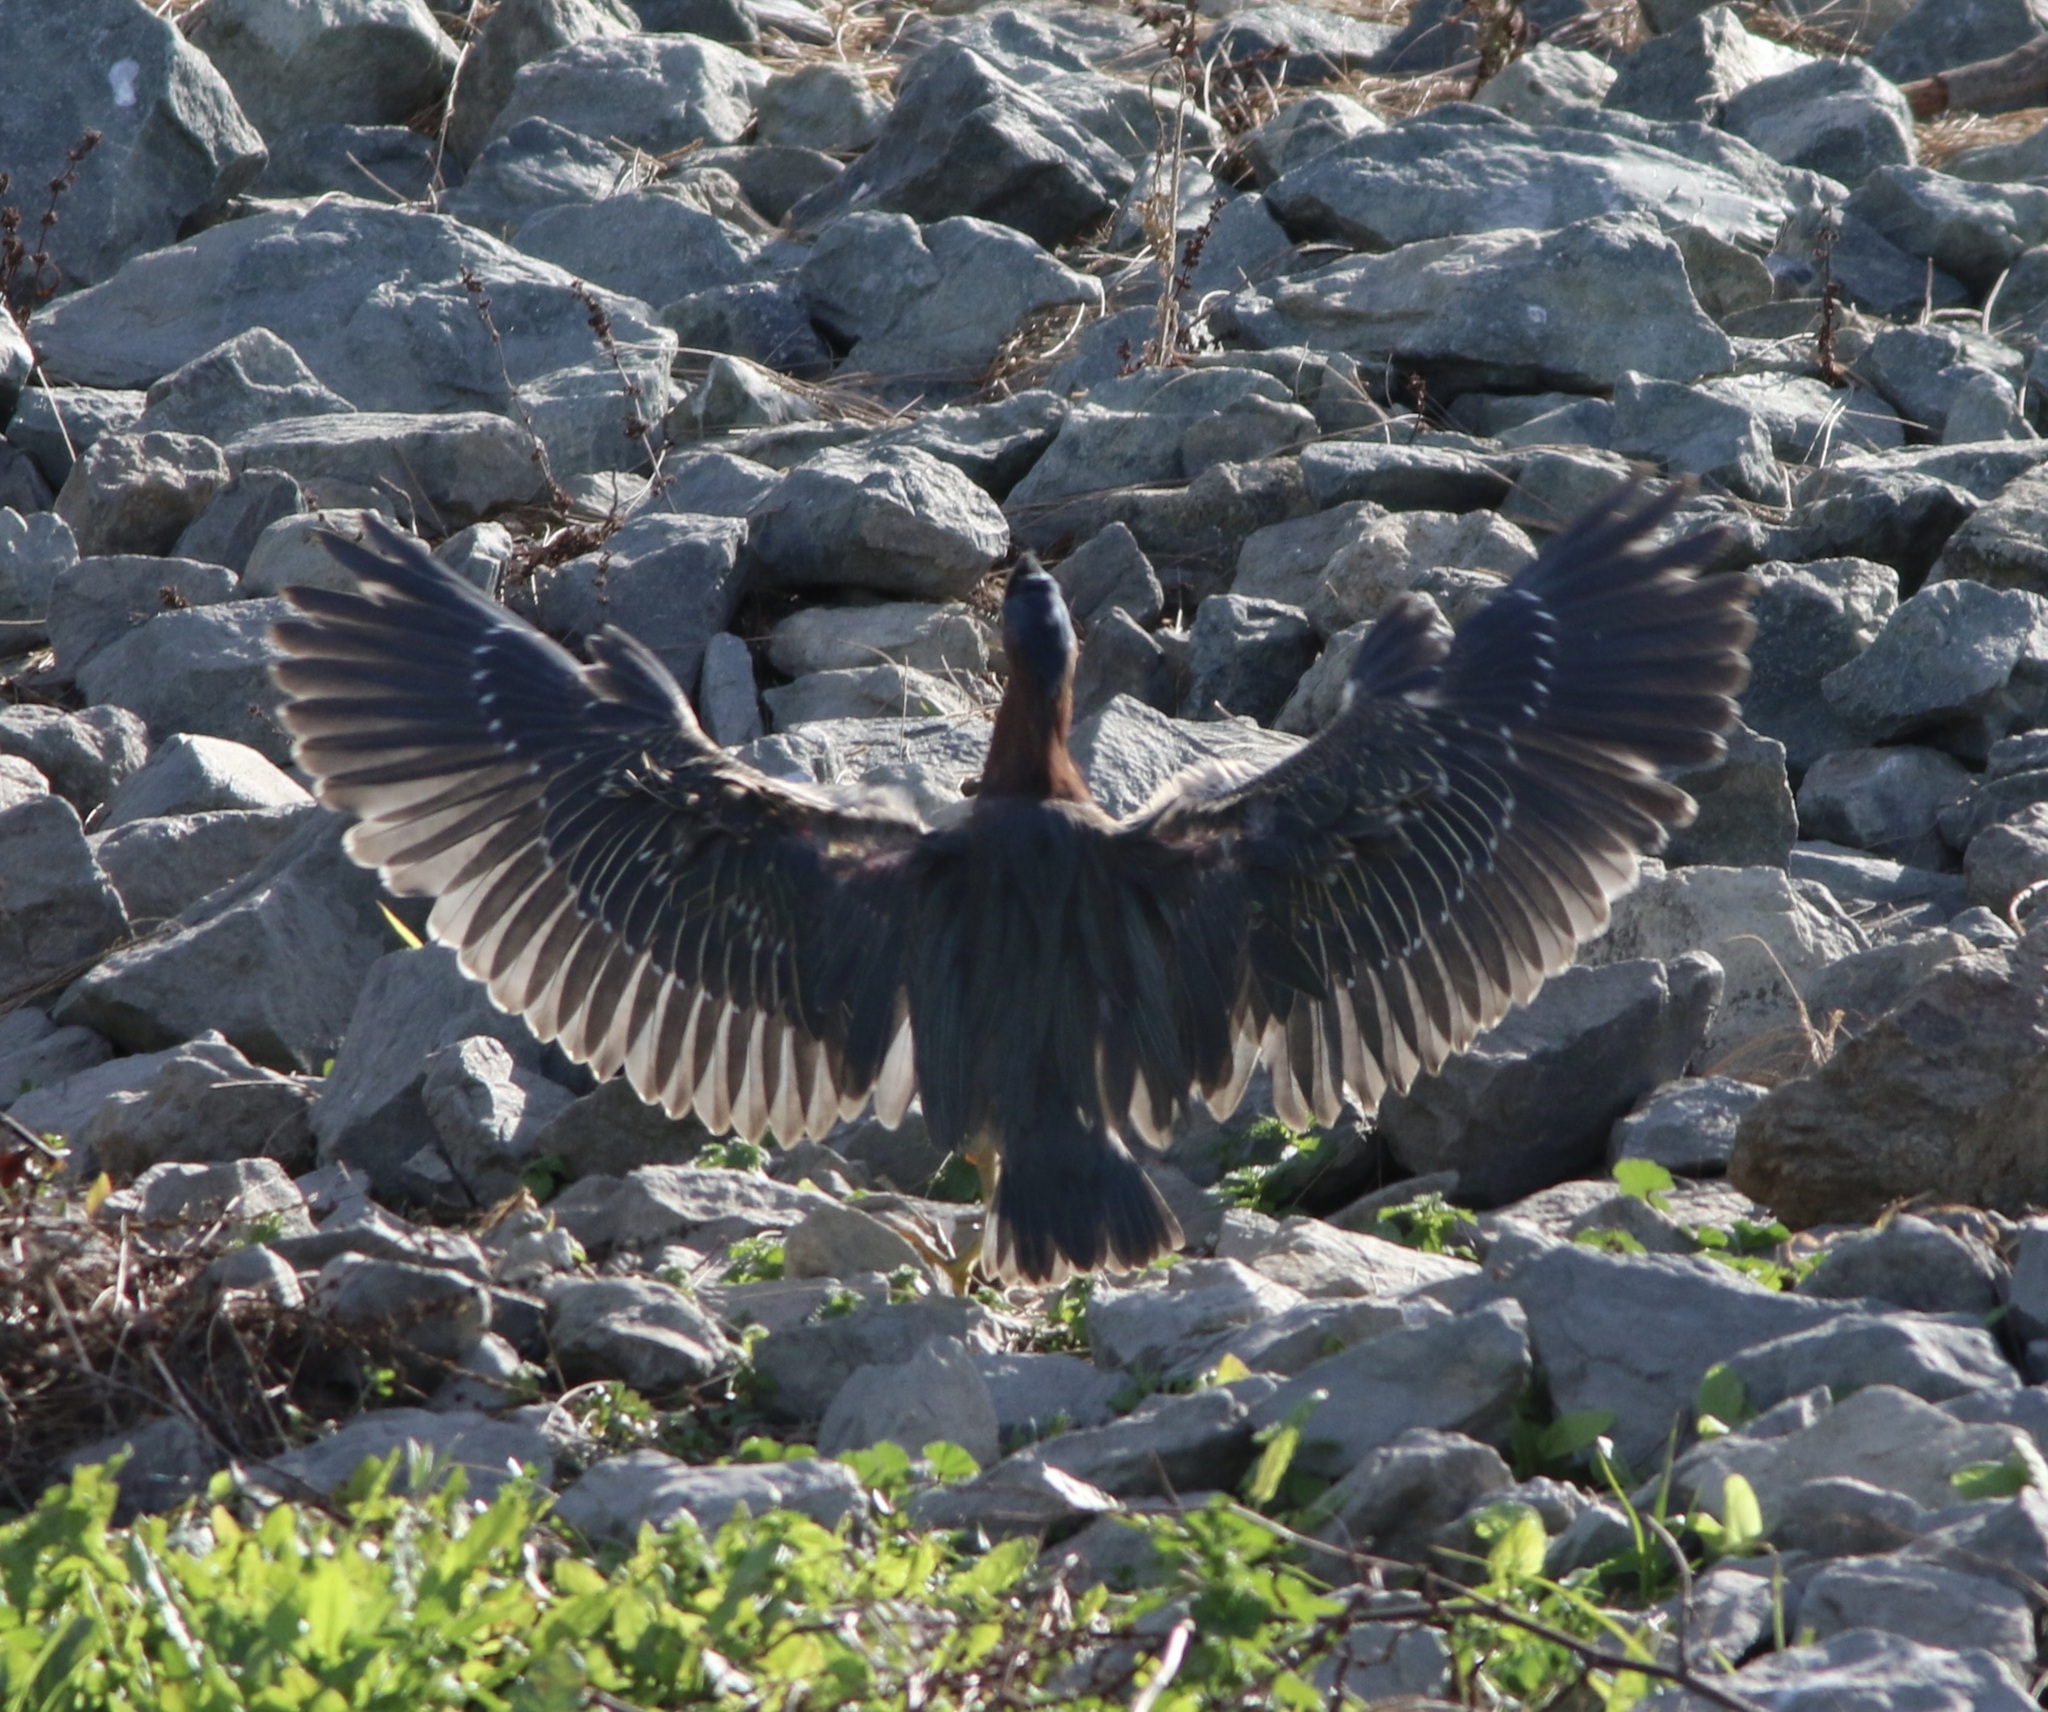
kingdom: Animalia
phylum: Chordata
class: Aves
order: Pelecaniformes
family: Ardeidae
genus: Butorides
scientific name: Butorides virescens
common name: Green heron
